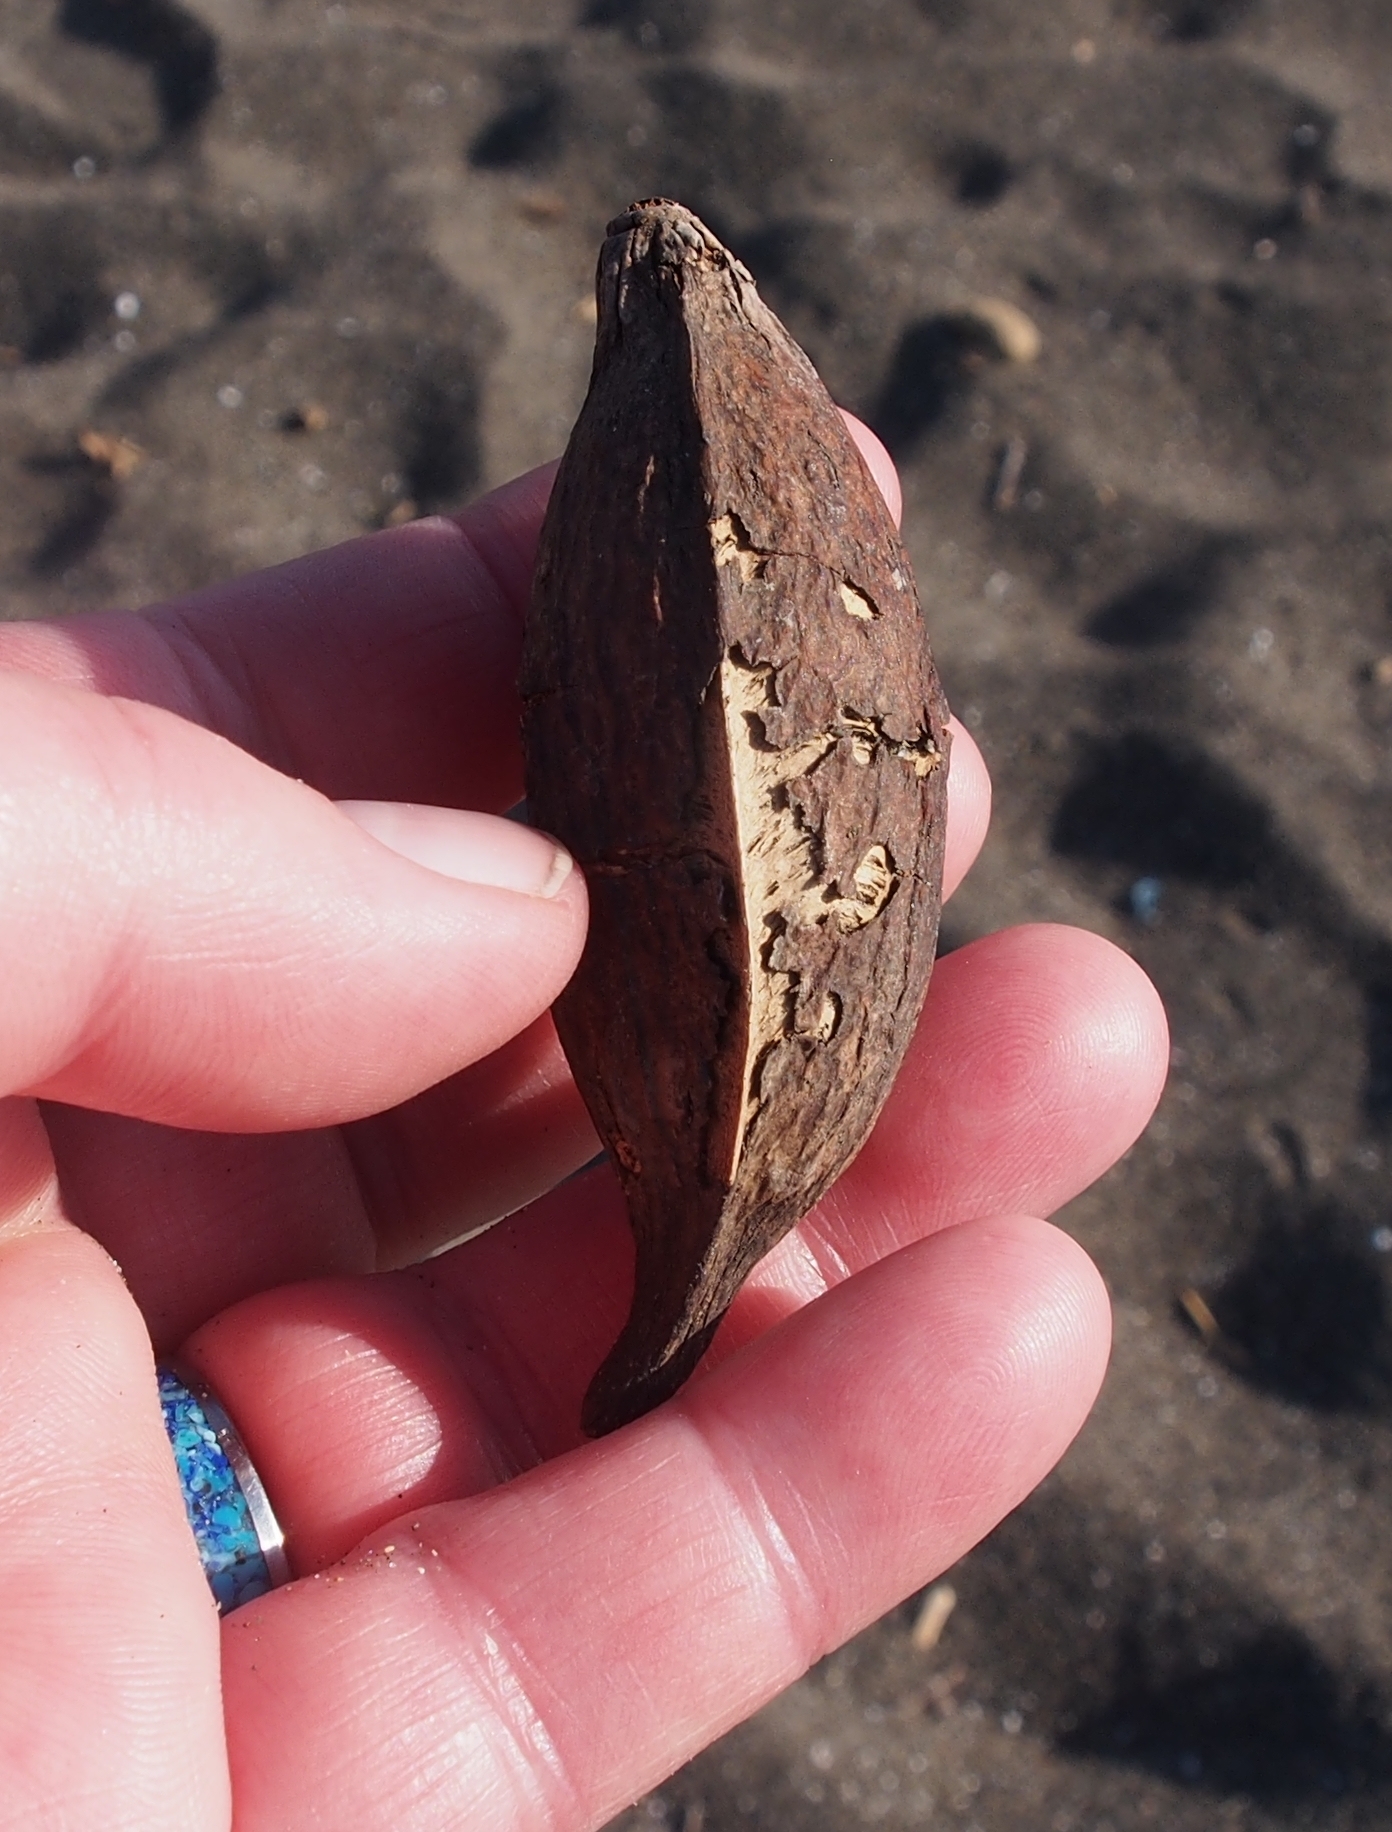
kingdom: Plantae
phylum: Tracheophyta
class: Magnoliopsida
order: Myrtales
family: Combretaceae
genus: Terminalia
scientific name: Terminalia catappa
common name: Tropical almond
